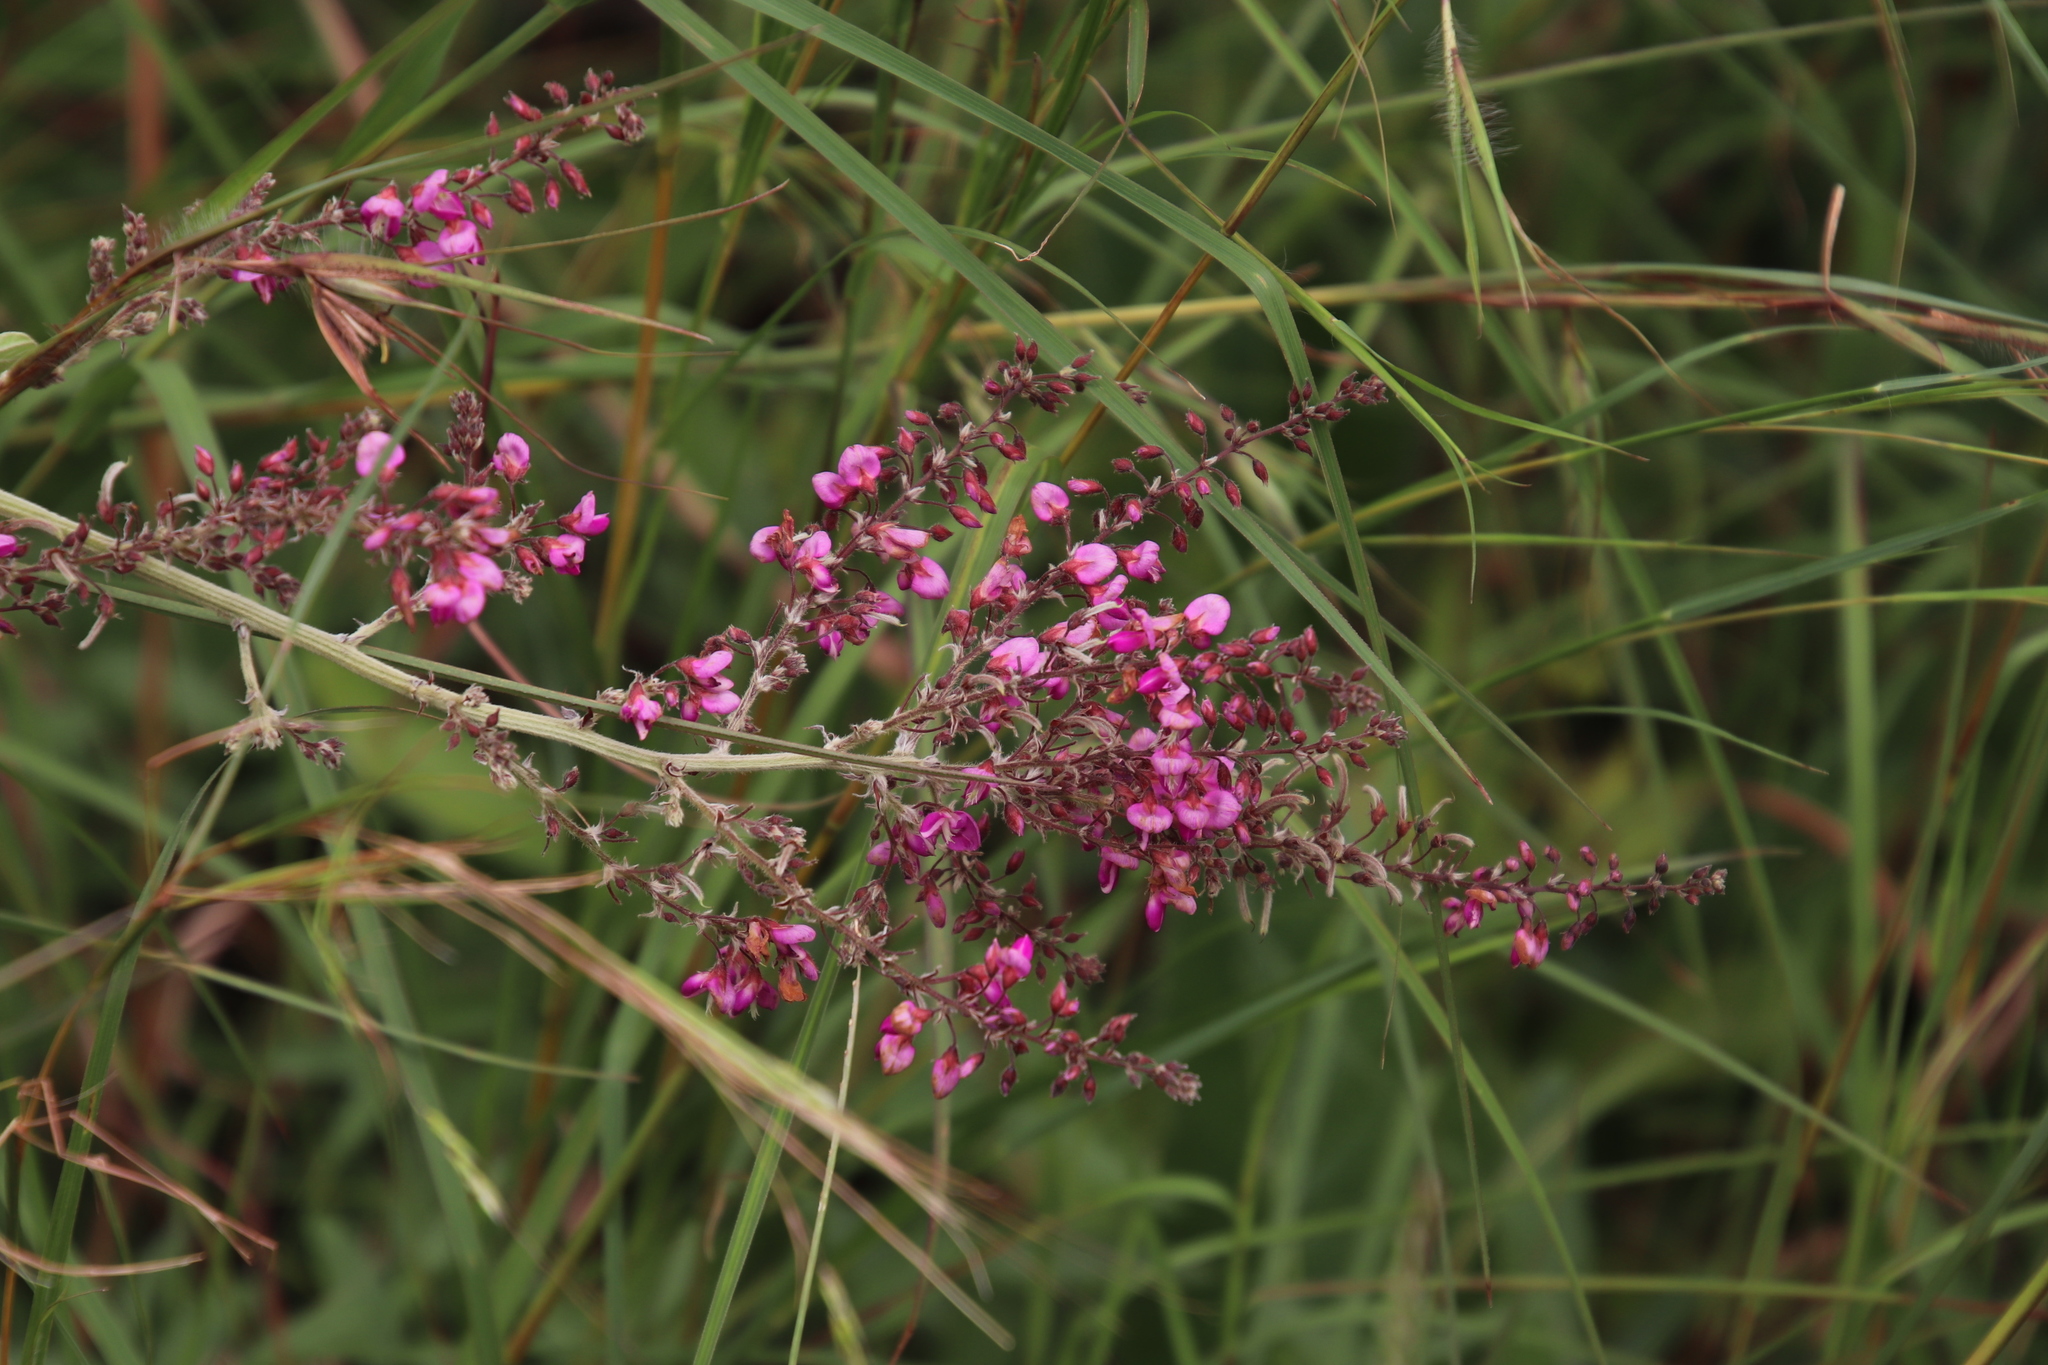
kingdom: Plantae
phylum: Tracheophyta
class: Magnoliopsida
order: Fabales
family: Fabaceae
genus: Pseudarthria
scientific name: Pseudarthria hookeri
